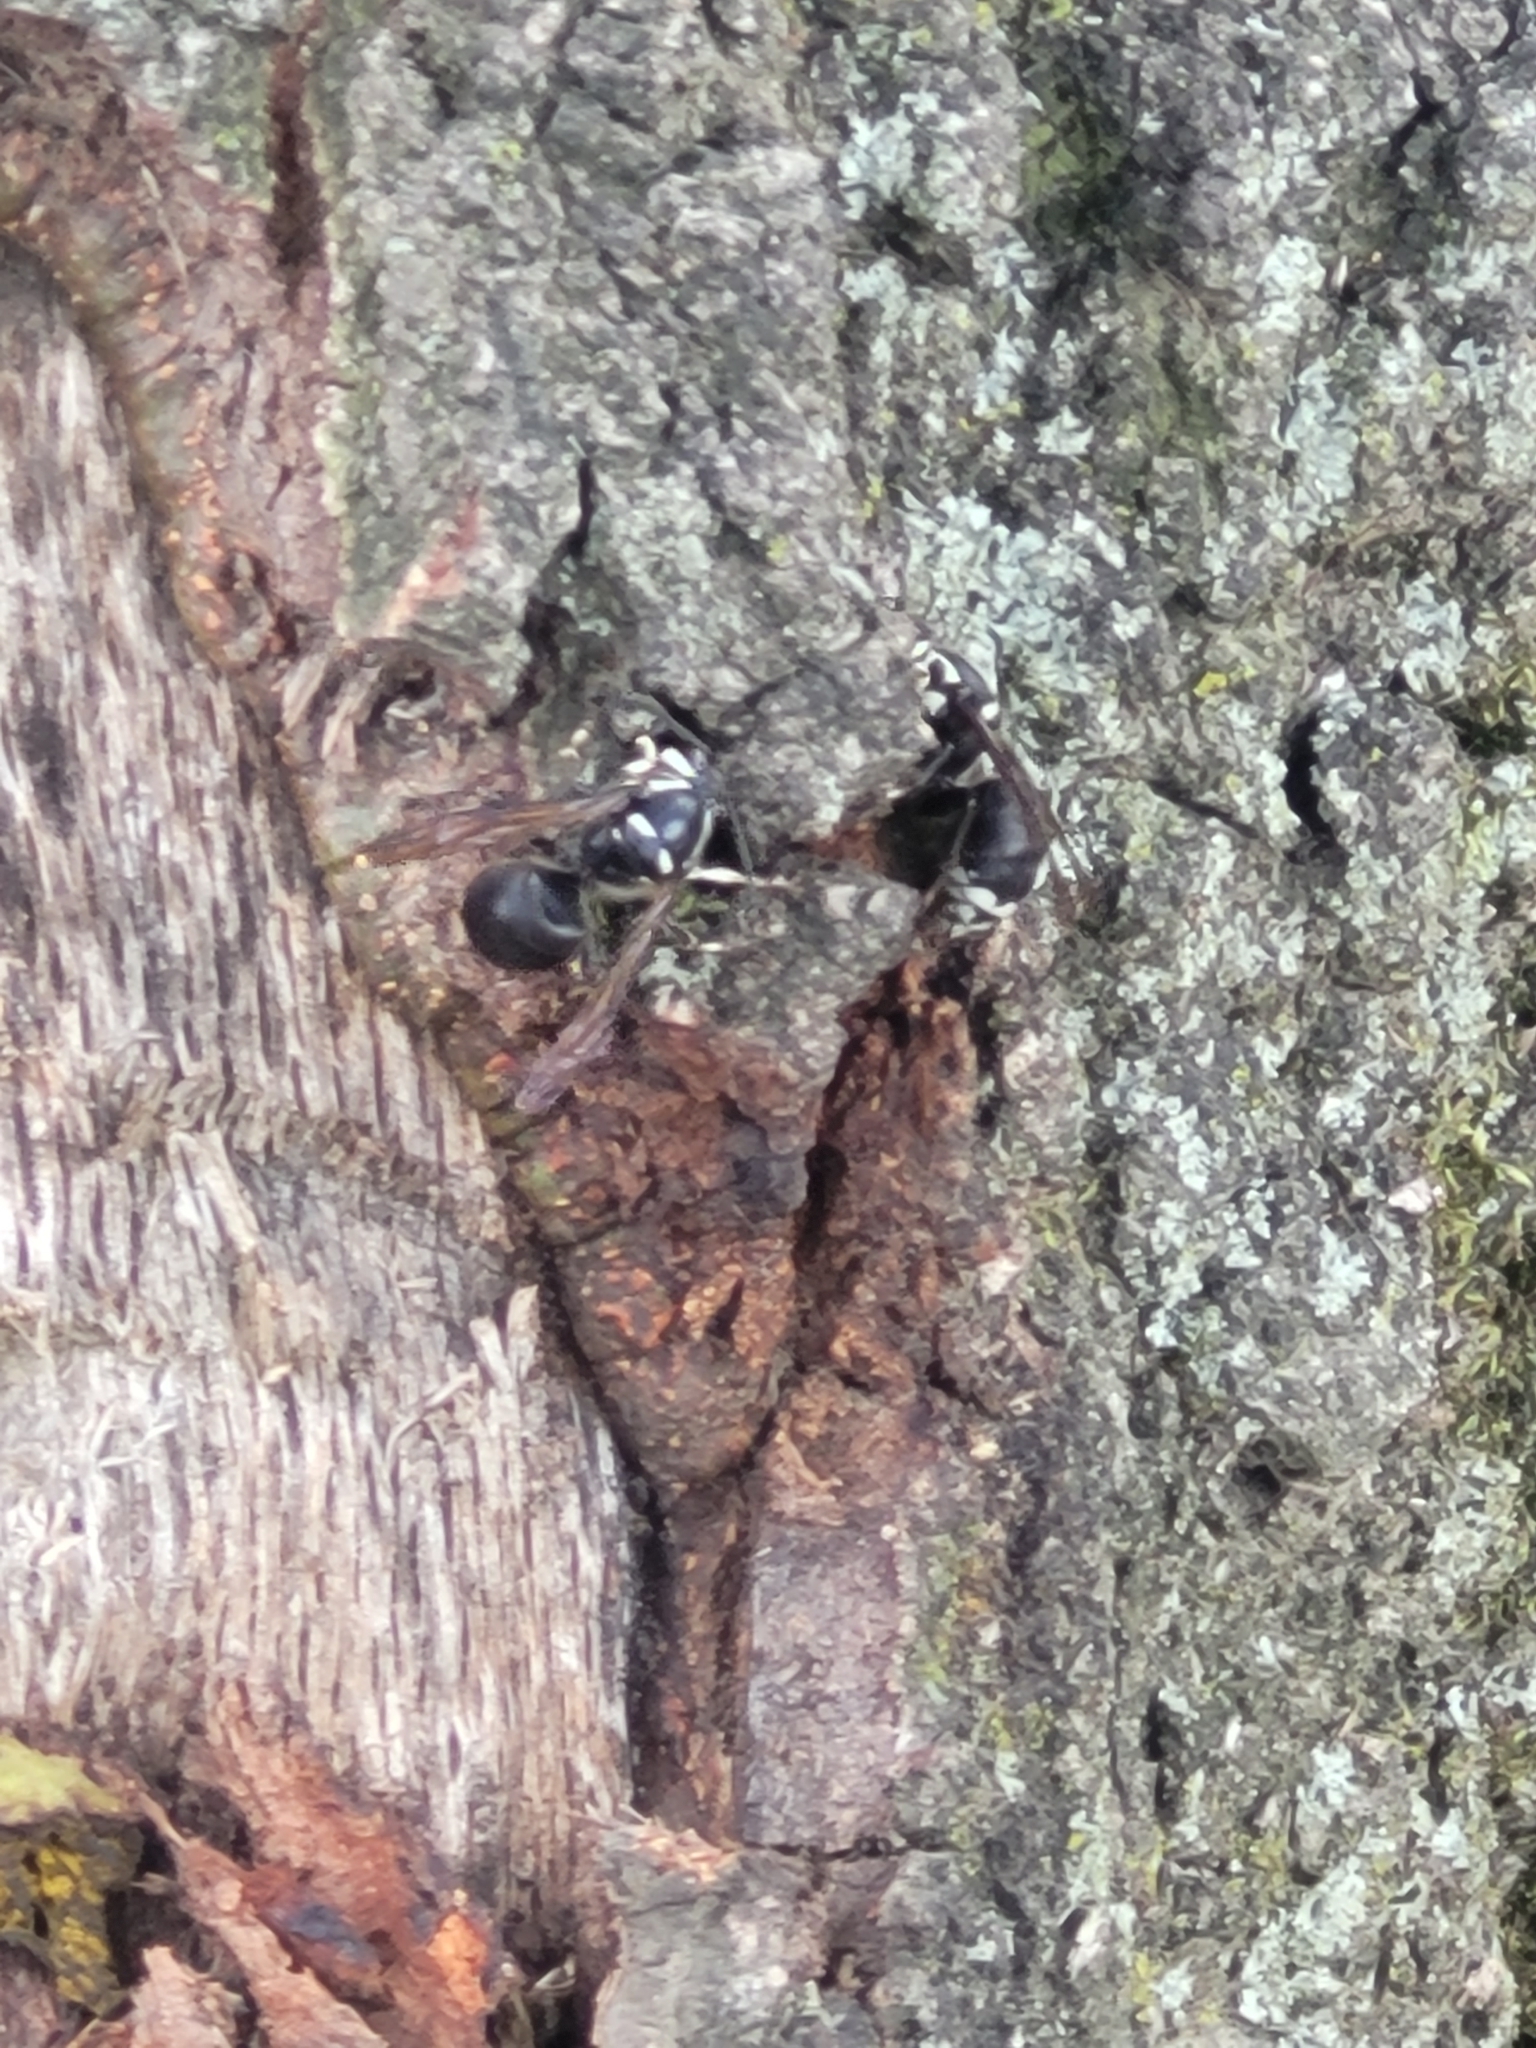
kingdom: Animalia
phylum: Arthropoda
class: Insecta
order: Hymenoptera
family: Vespidae
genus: Dolichovespula
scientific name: Dolichovespula maculata
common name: Bald-faced hornet
